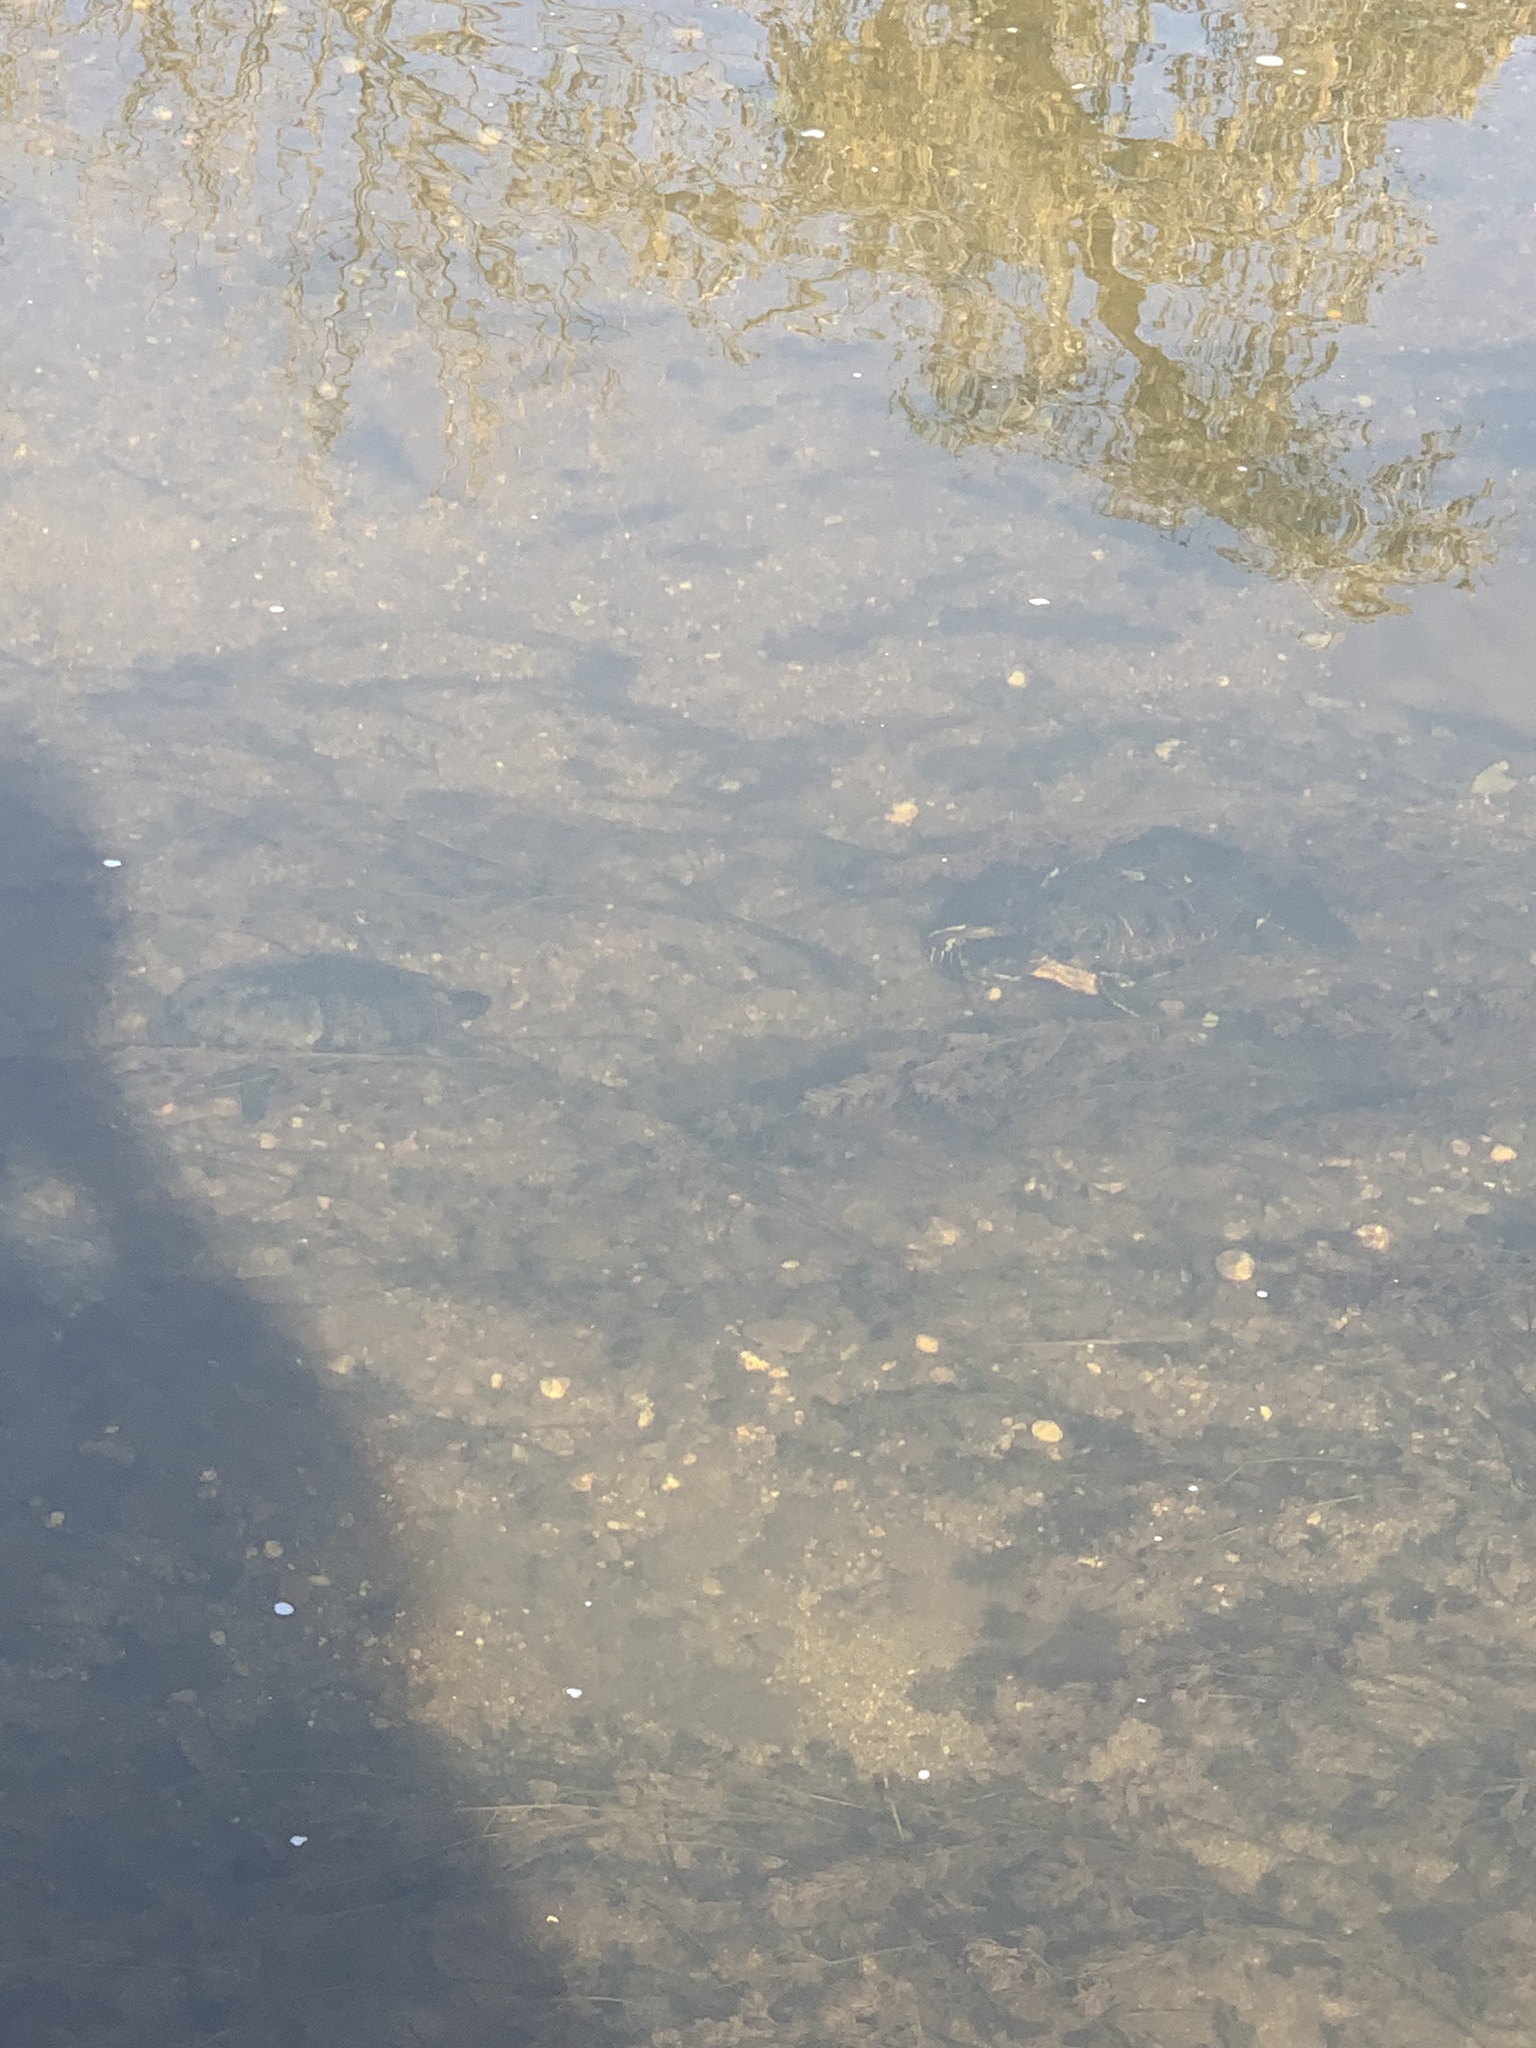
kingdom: Animalia
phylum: Chordata
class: Testudines
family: Emydidae
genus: Trachemys
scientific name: Trachemys scripta
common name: Slider
